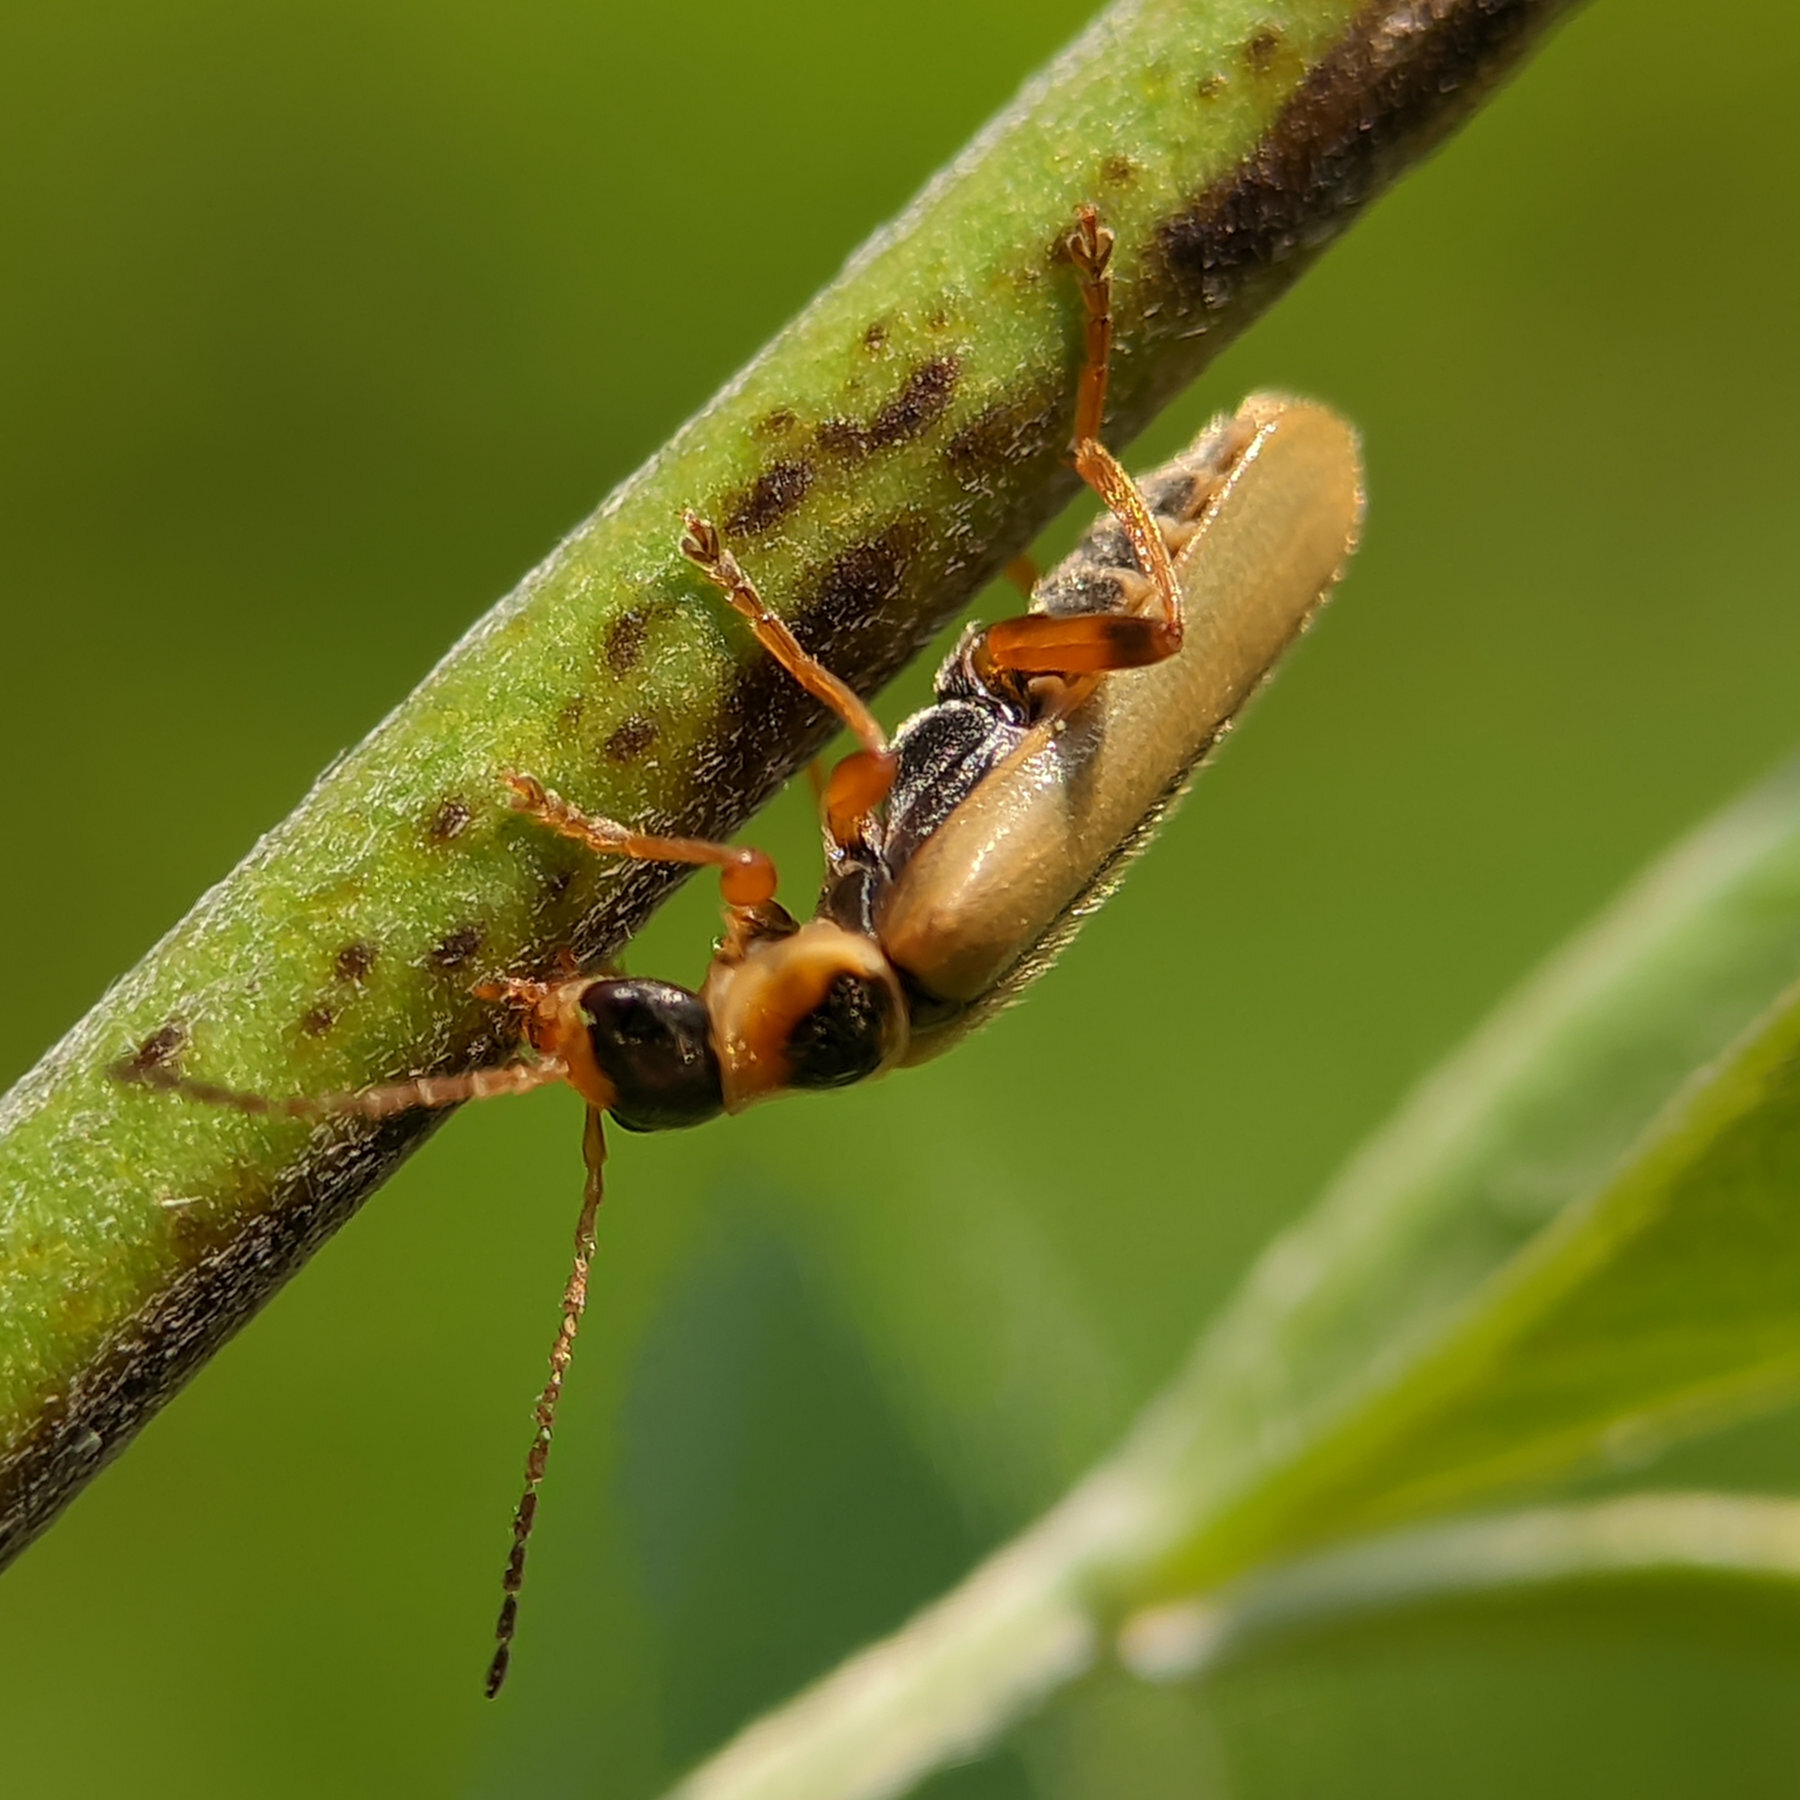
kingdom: Animalia
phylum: Arthropoda
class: Insecta
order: Coleoptera
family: Cantharidae
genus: Metacantharis
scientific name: Metacantharis clypeata
